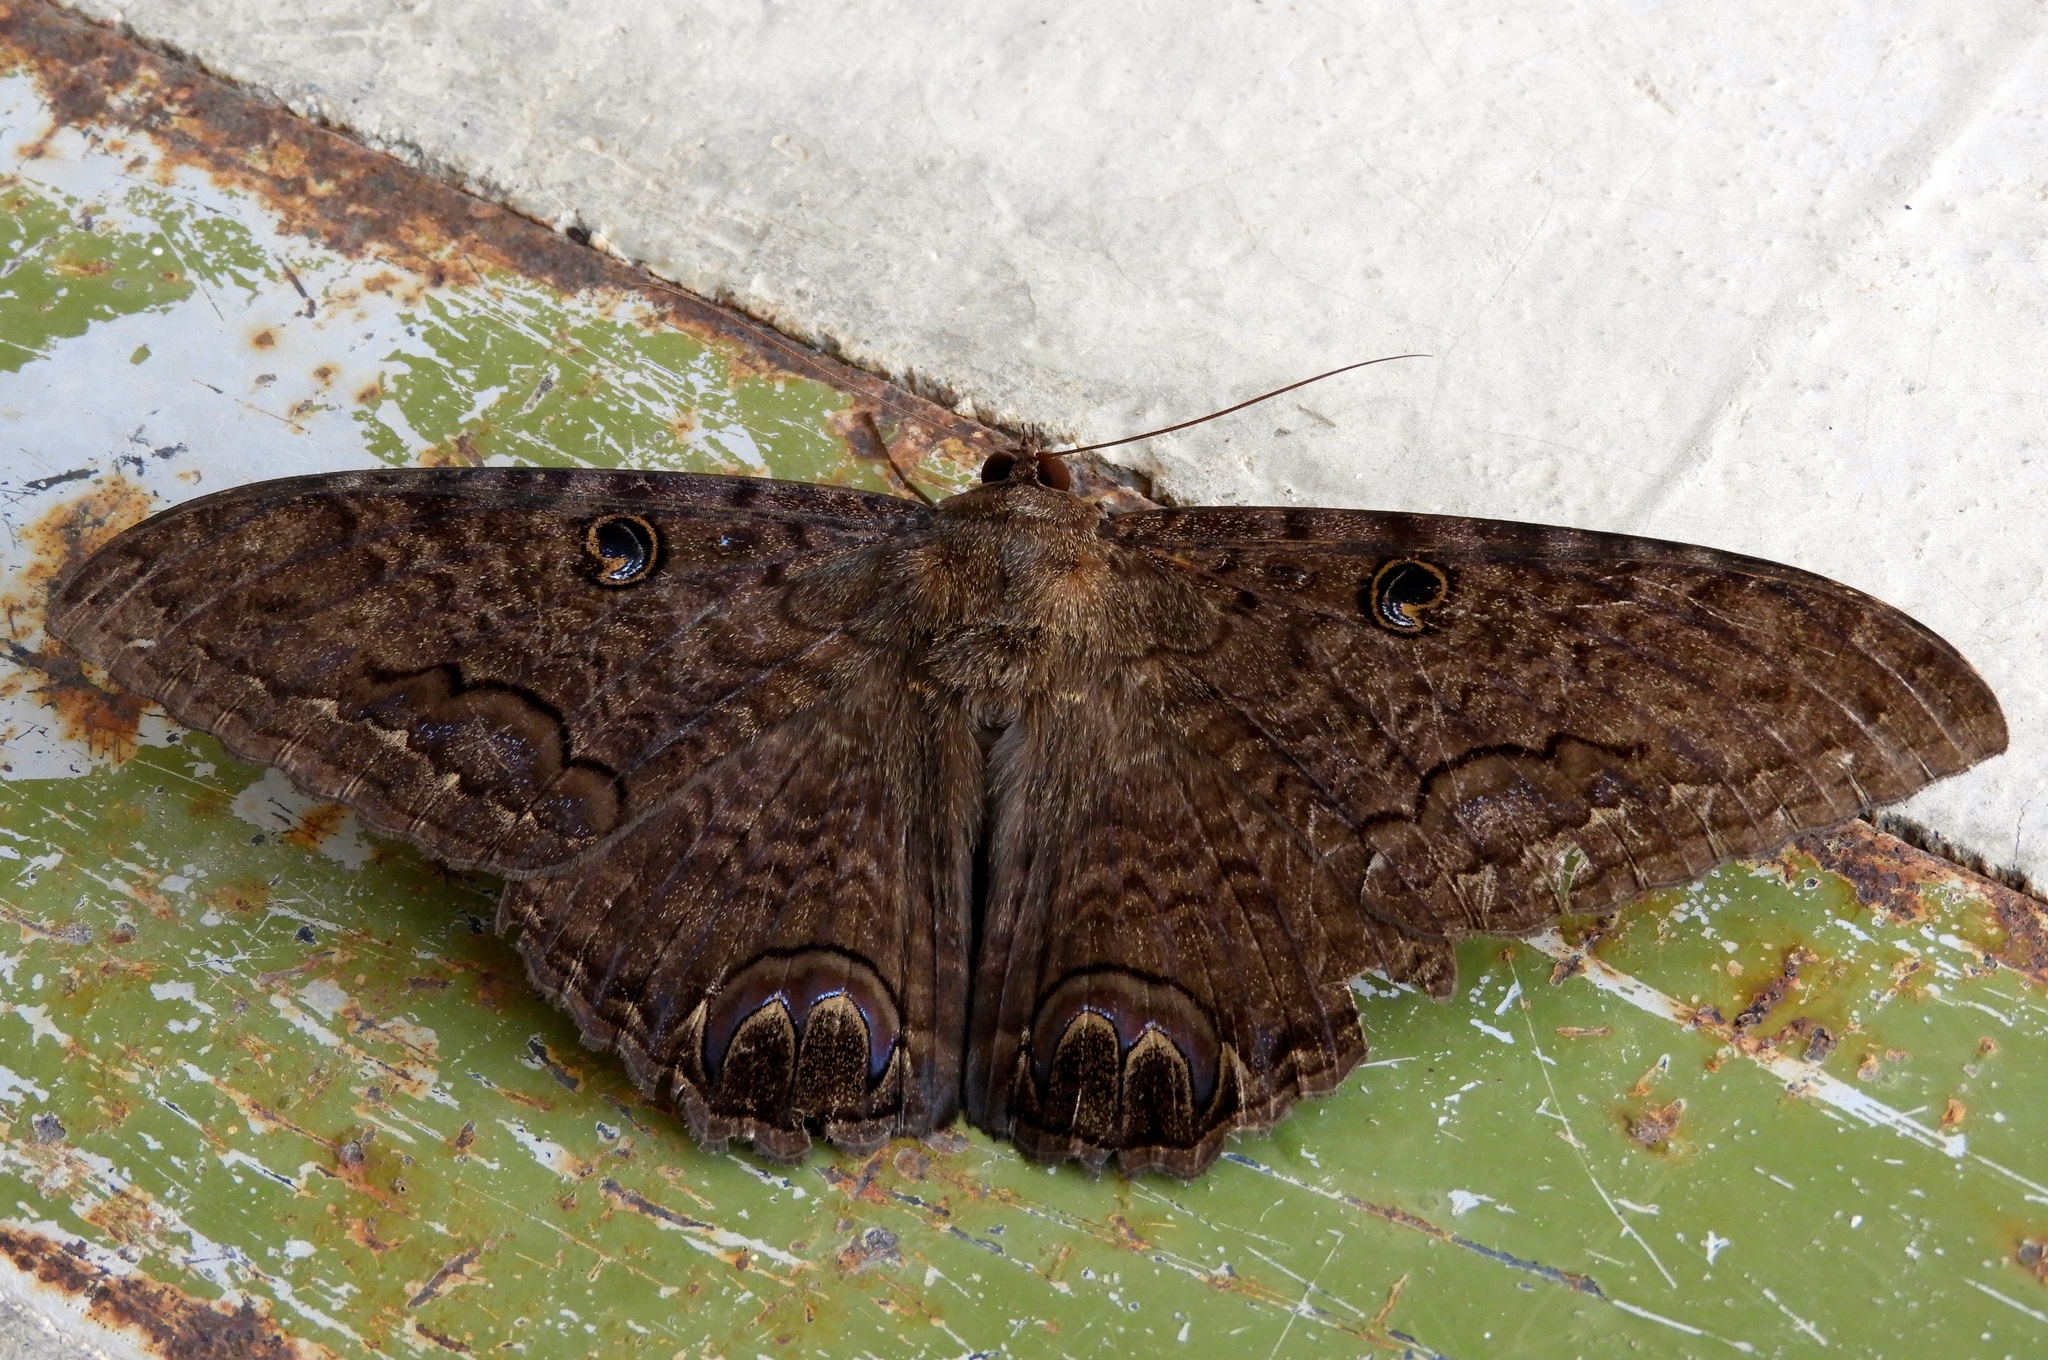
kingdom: Animalia
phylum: Arthropoda
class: Insecta
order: Lepidoptera
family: Erebidae
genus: Ascalapha
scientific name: Ascalapha odorata
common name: Black witch
